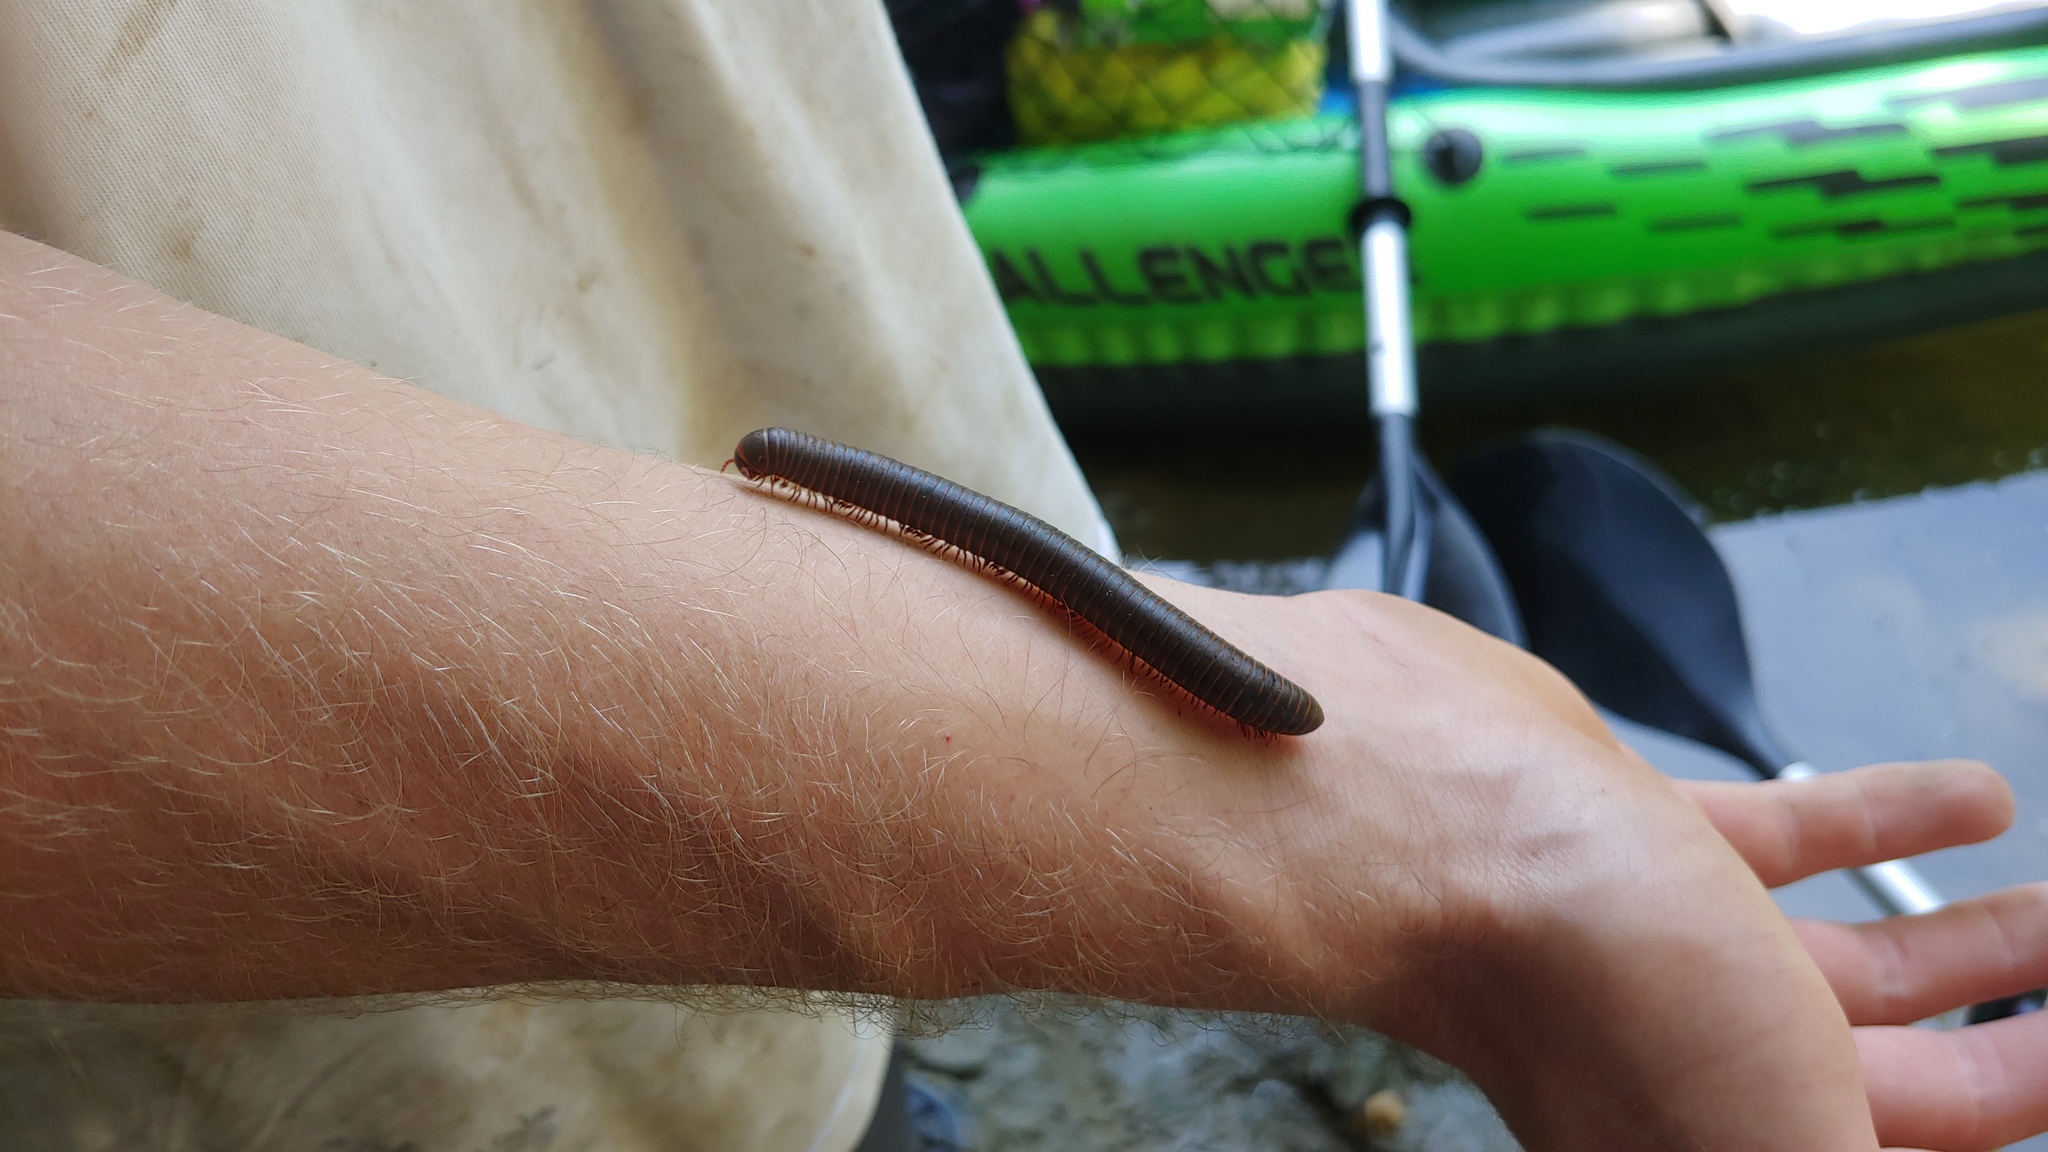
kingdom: Animalia
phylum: Arthropoda
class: Diplopoda
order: Spirobolida
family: Spirobolidae
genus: Narceus
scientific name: Narceus
